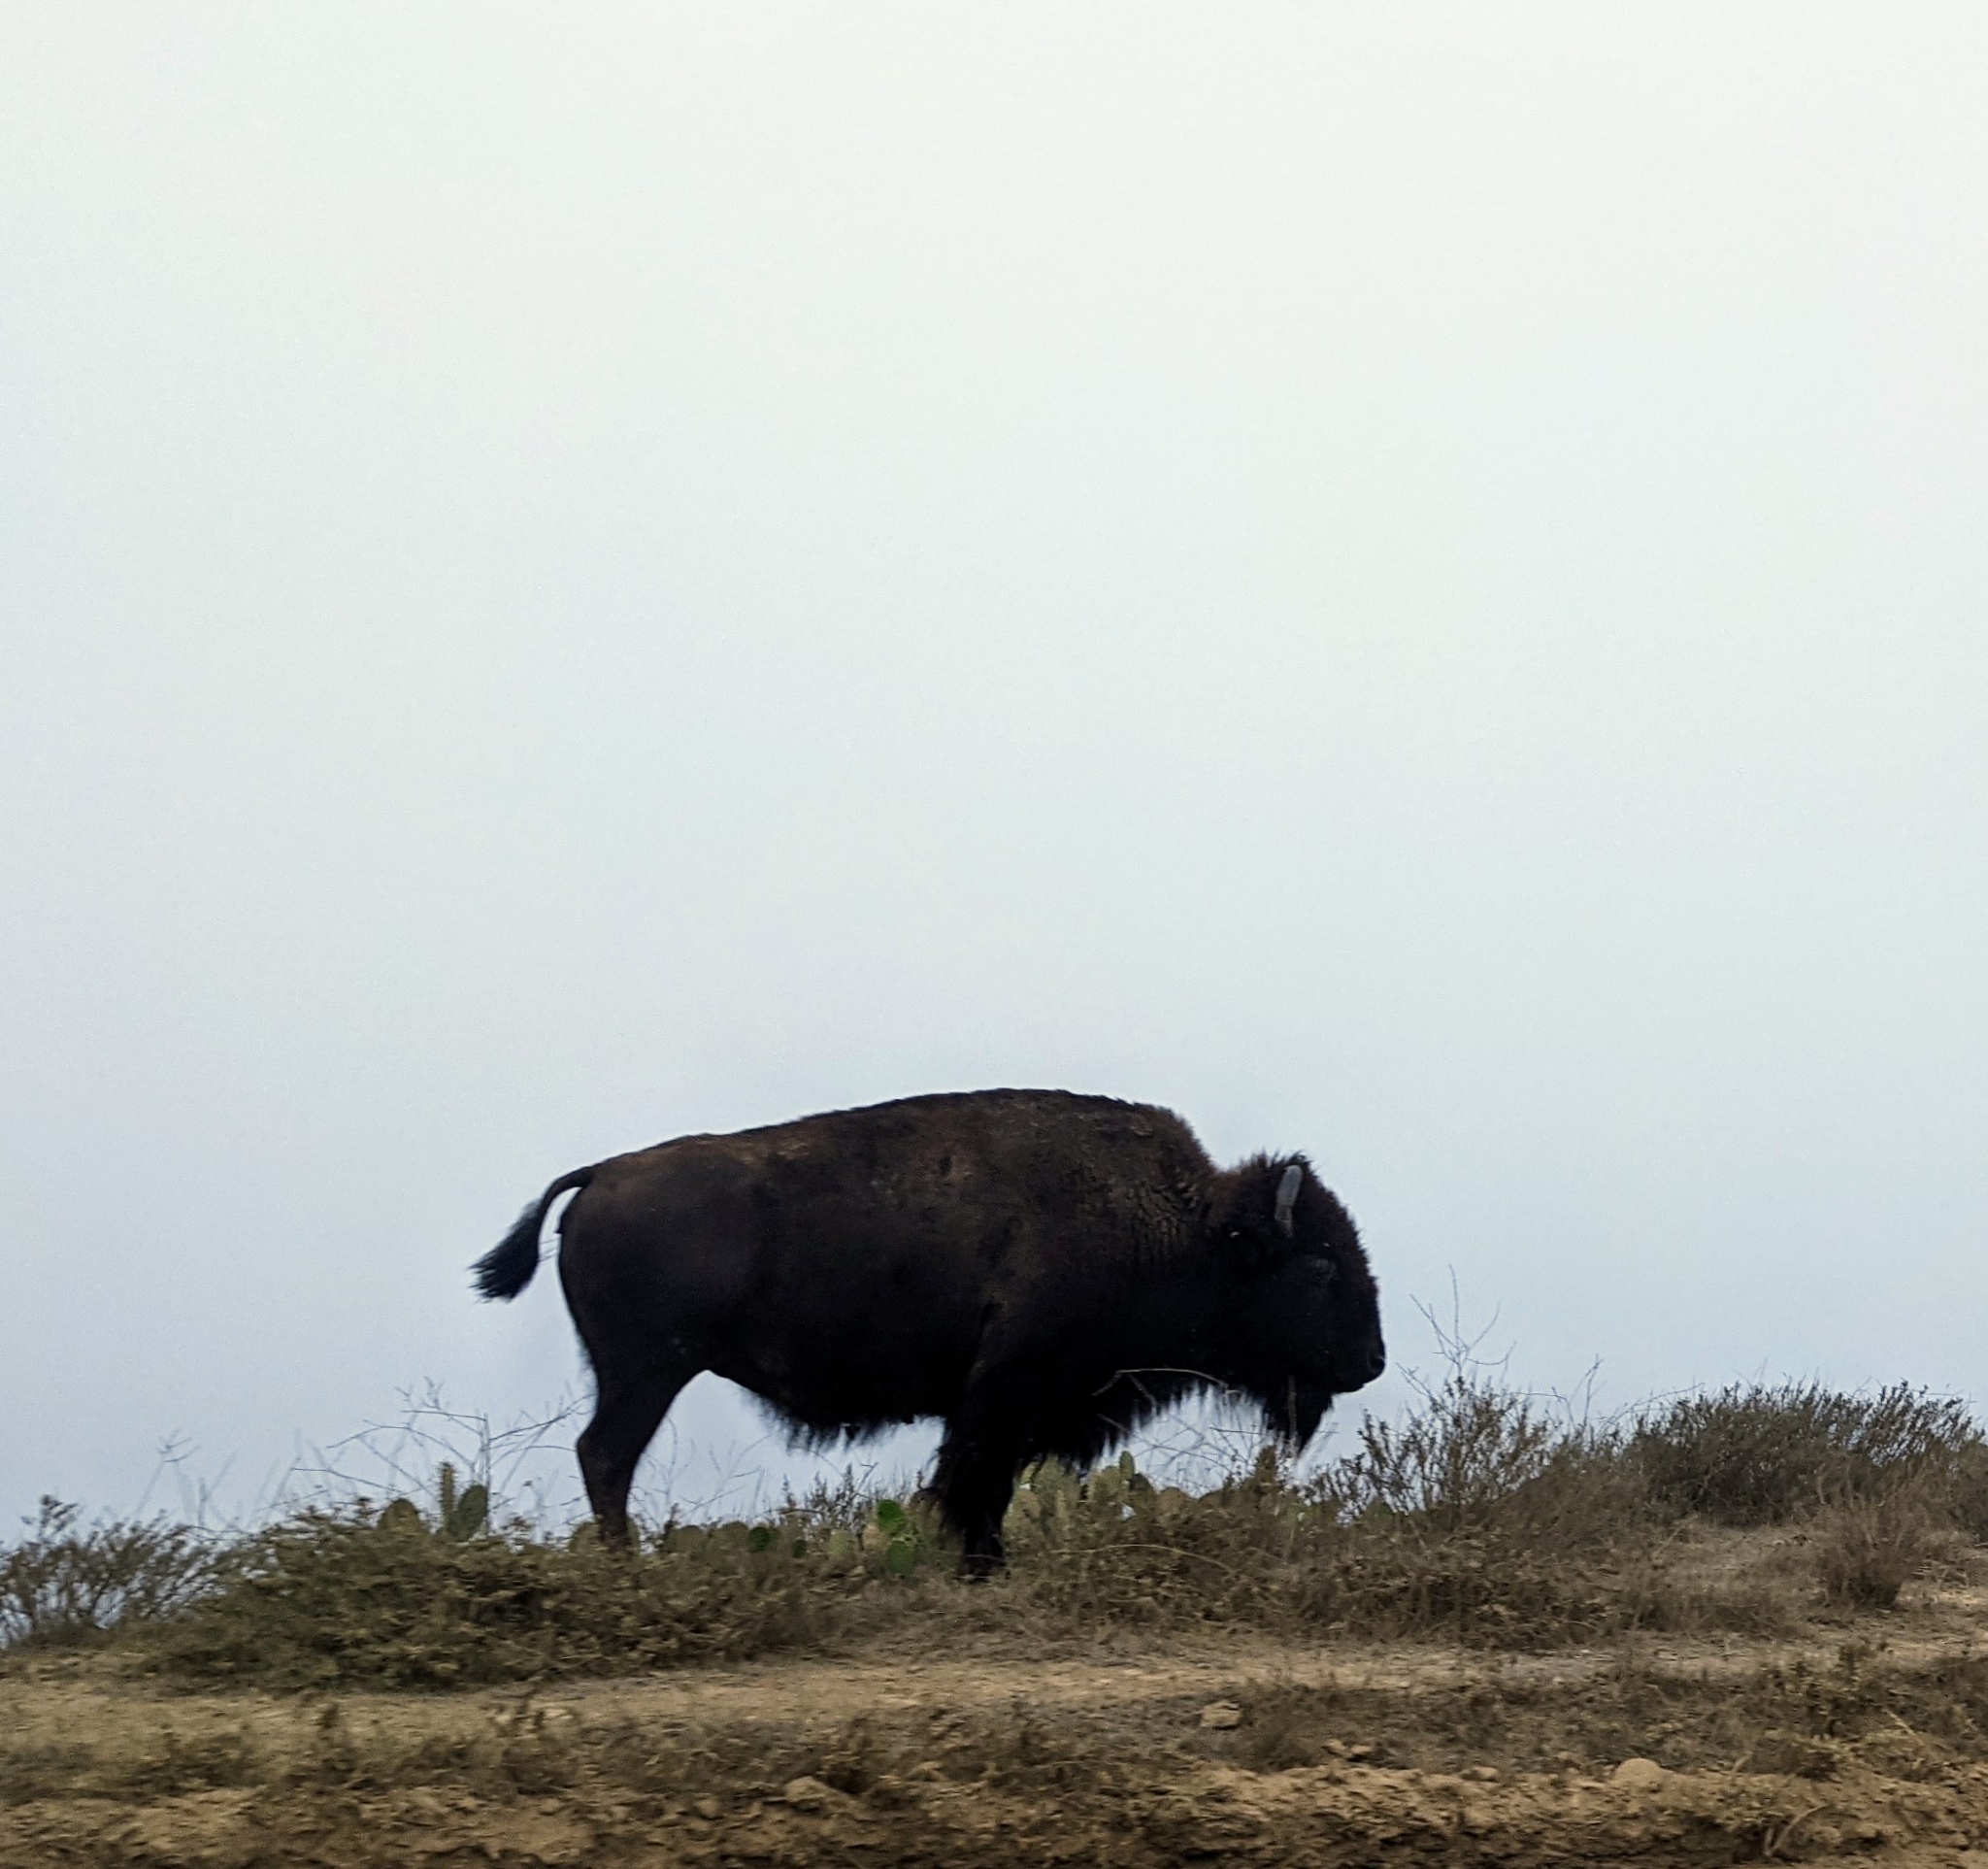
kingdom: Animalia
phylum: Chordata
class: Mammalia
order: Artiodactyla
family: Bovidae
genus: Bison
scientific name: Bison bison
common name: American bison
